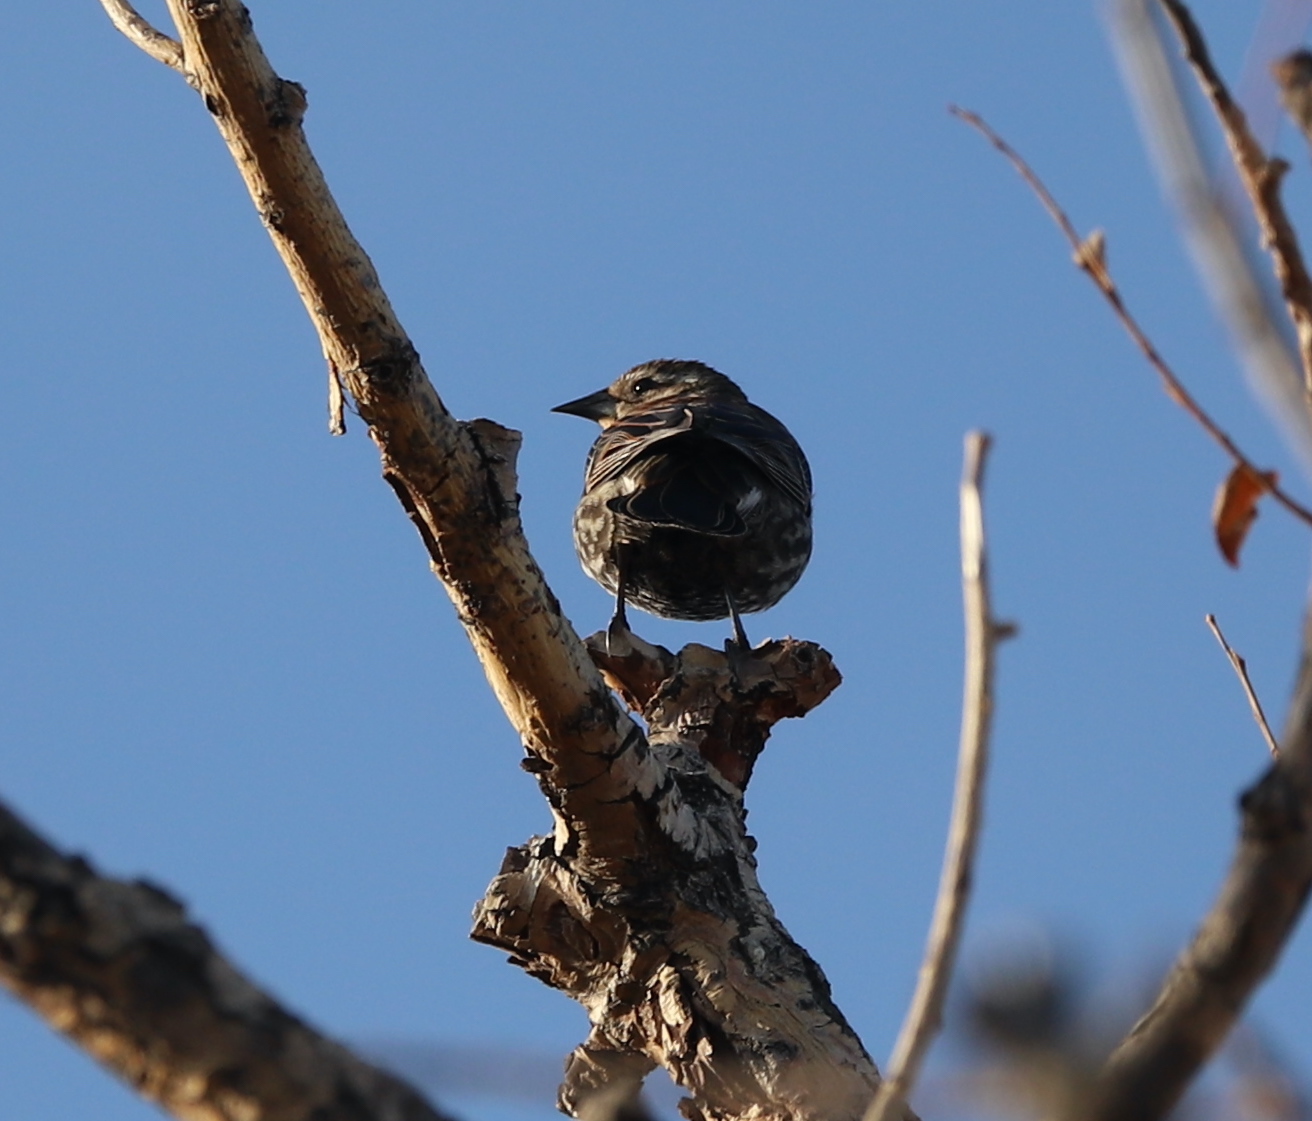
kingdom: Animalia
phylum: Chordata
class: Aves
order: Passeriformes
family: Icteridae
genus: Agelaius
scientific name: Agelaius phoeniceus
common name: Red-winged blackbird
